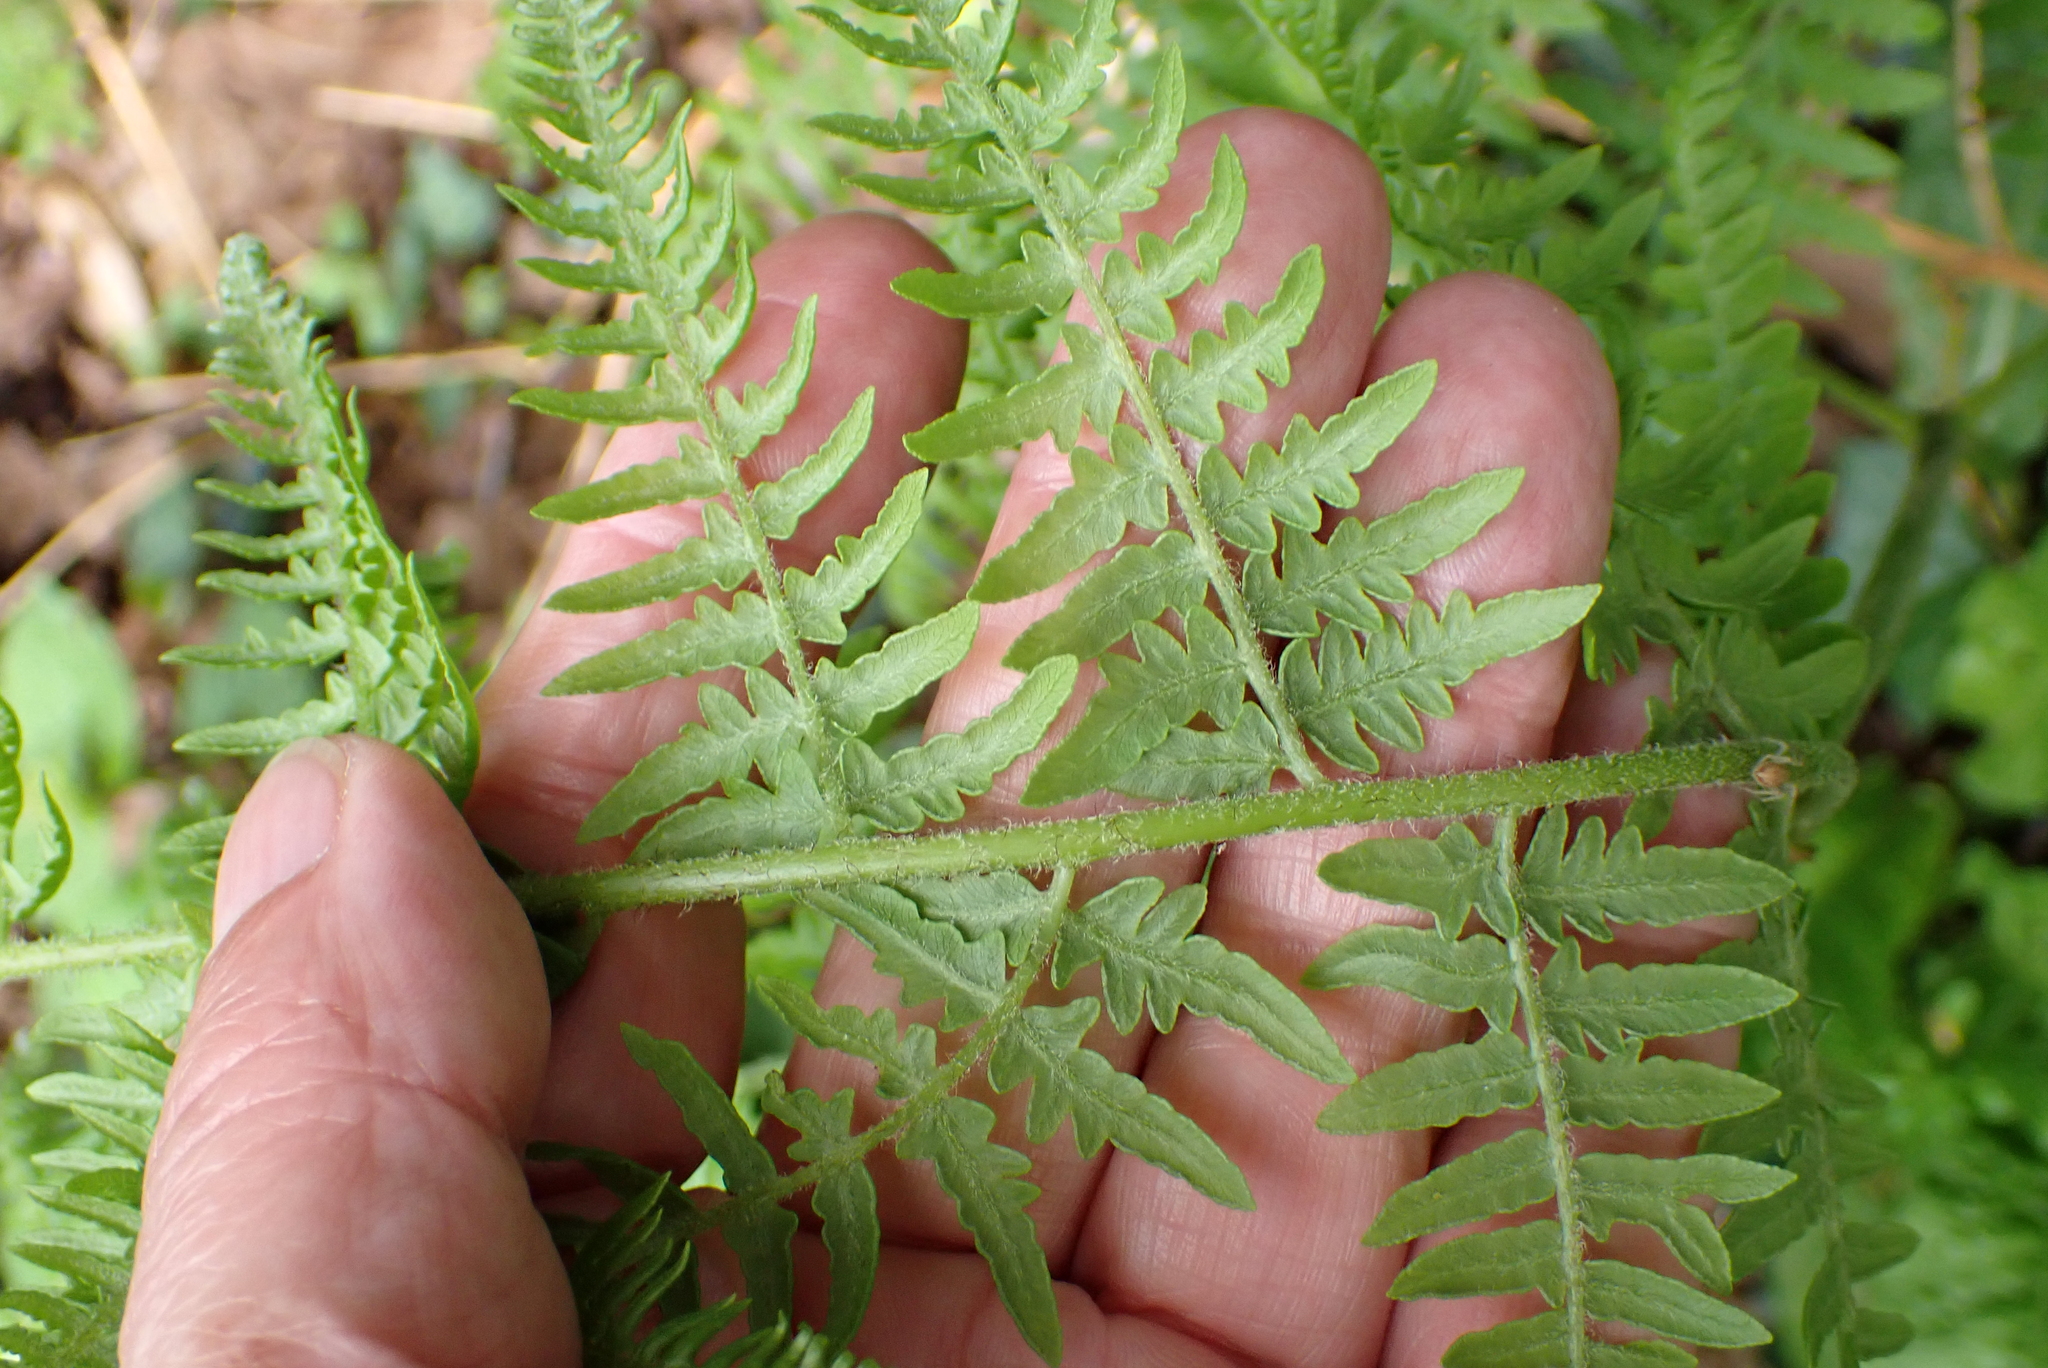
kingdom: Plantae
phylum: Tracheophyta
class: Polypodiopsida
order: Polypodiales
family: Dennstaedtiaceae
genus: Pteridium
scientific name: Pteridium aquilinum
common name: Bracken
